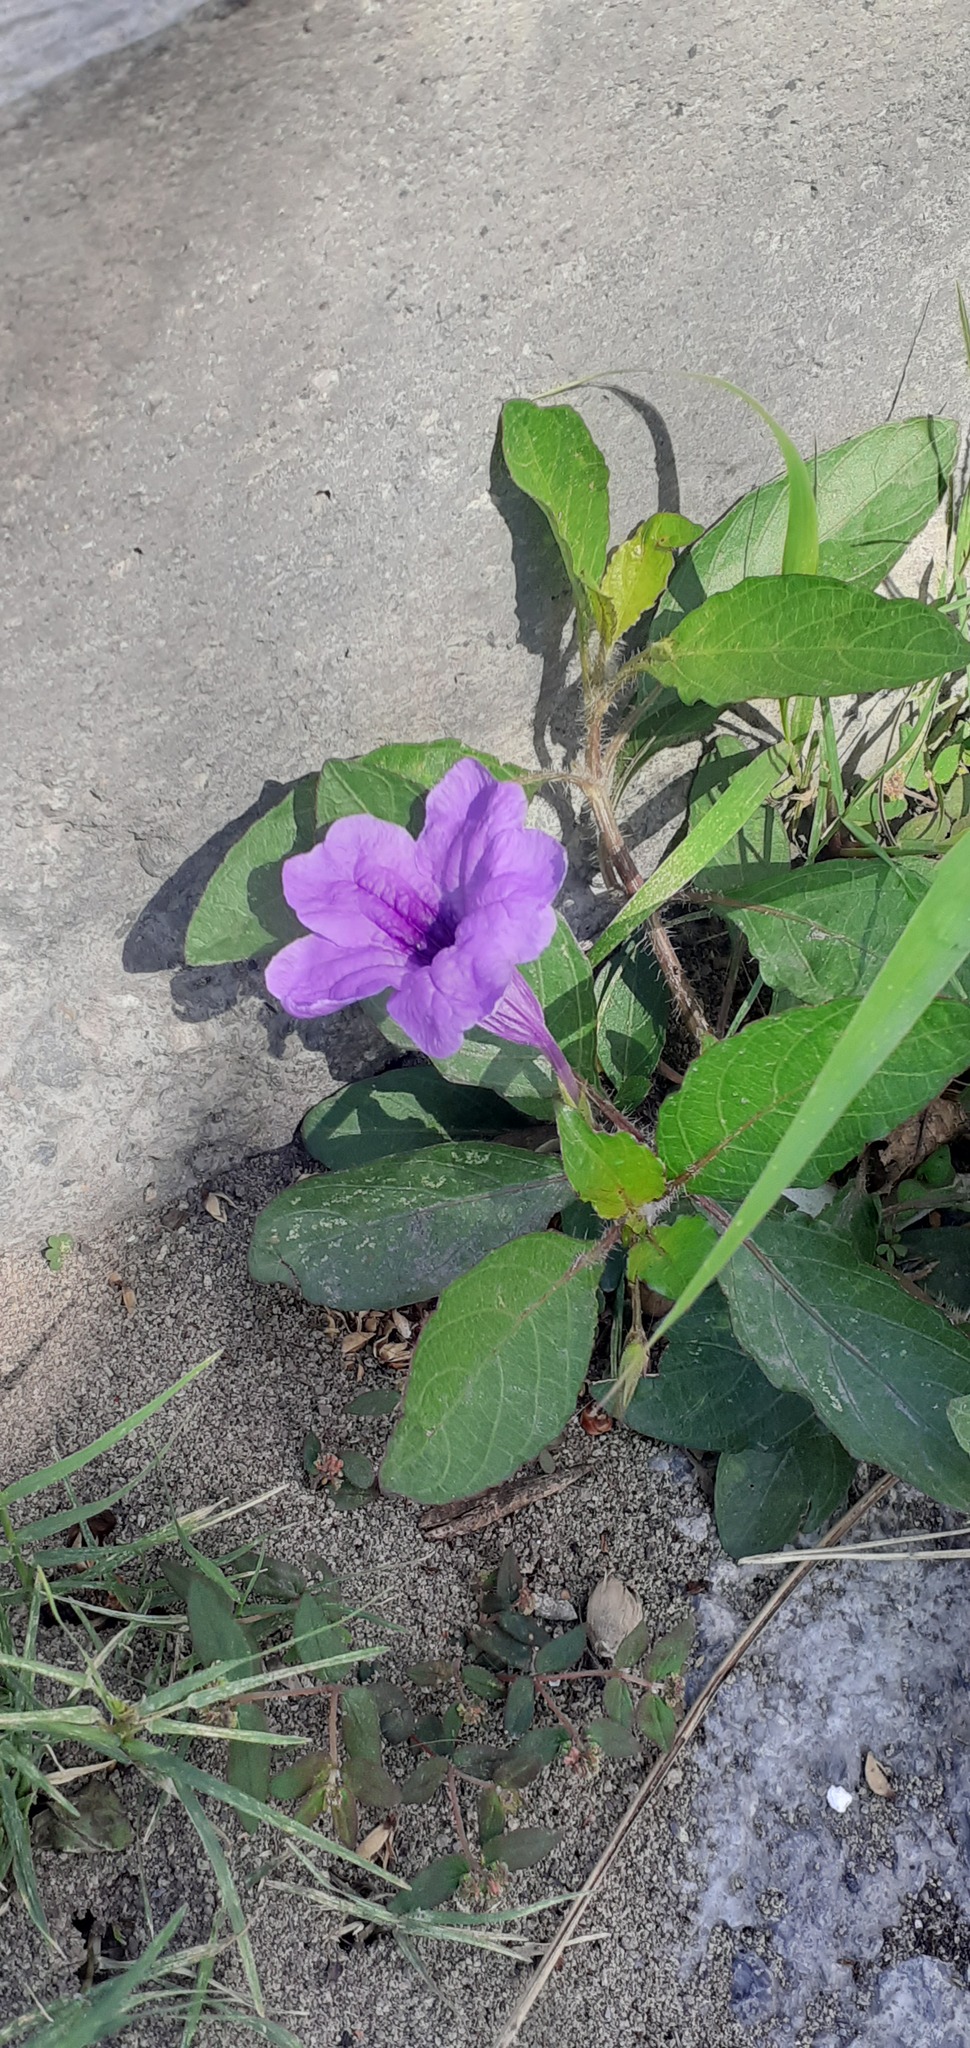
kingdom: Plantae
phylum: Tracheophyta
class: Magnoliopsida
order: Lamiales
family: Acanthaceae
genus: Ruellia
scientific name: Ruellia simplex
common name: Softseed wild petunia
